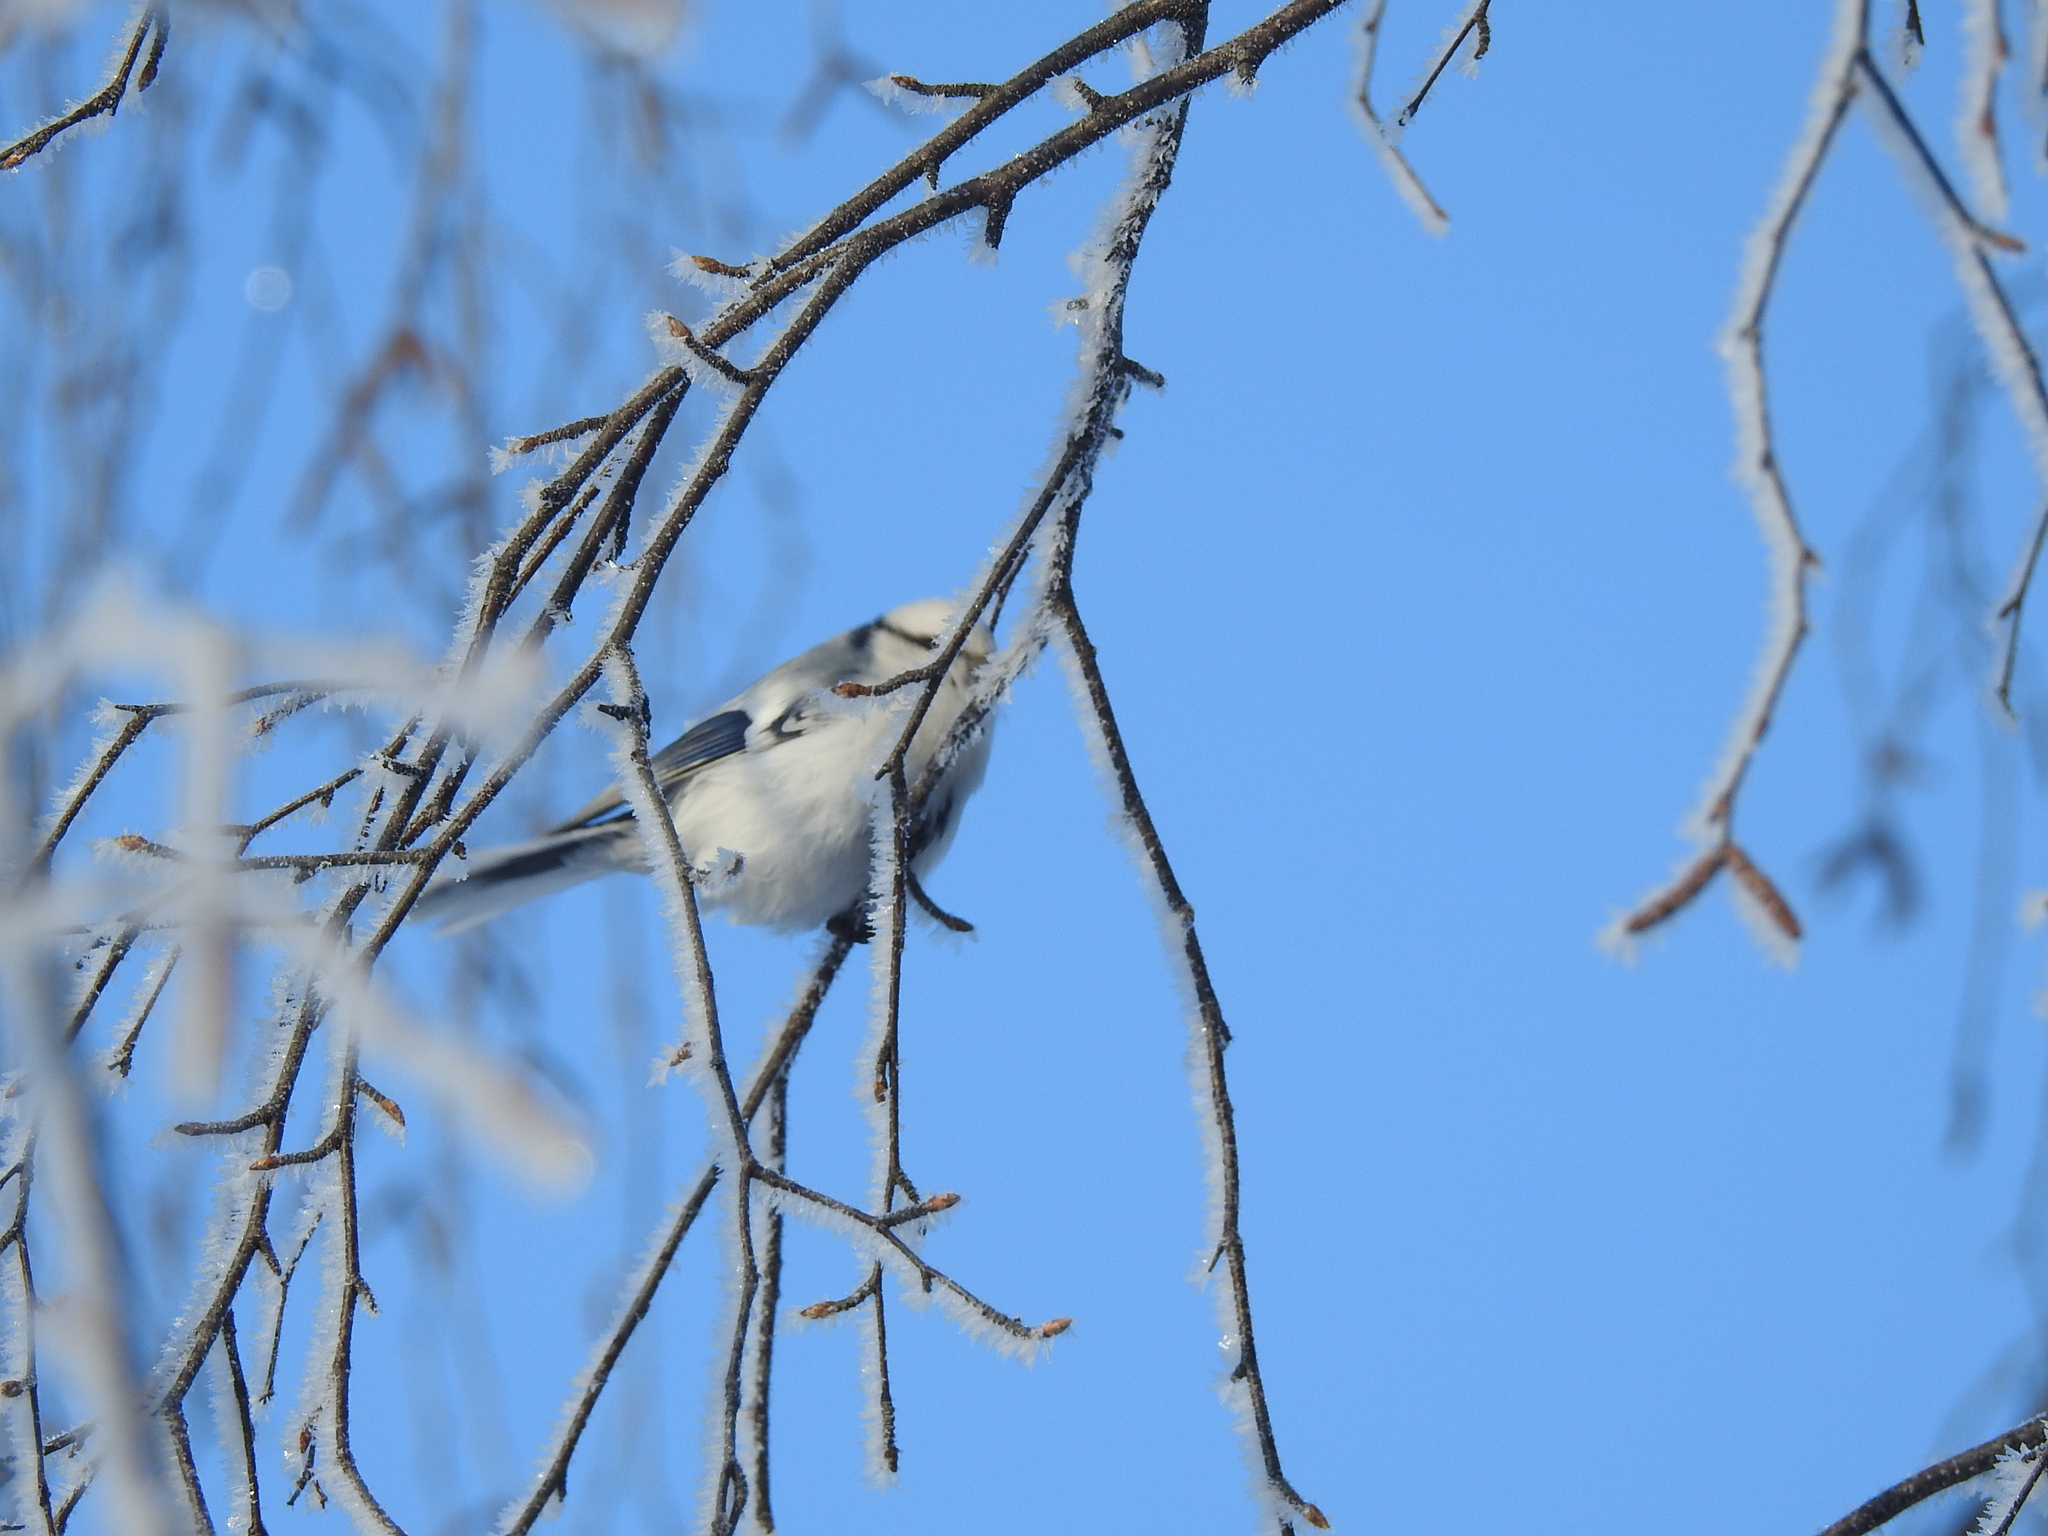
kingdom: Animalia
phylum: Chordata
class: Aves
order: Passeriformes
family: Paridae
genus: Cyanistes
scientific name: Cyanistes cyanus
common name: Azure tit
